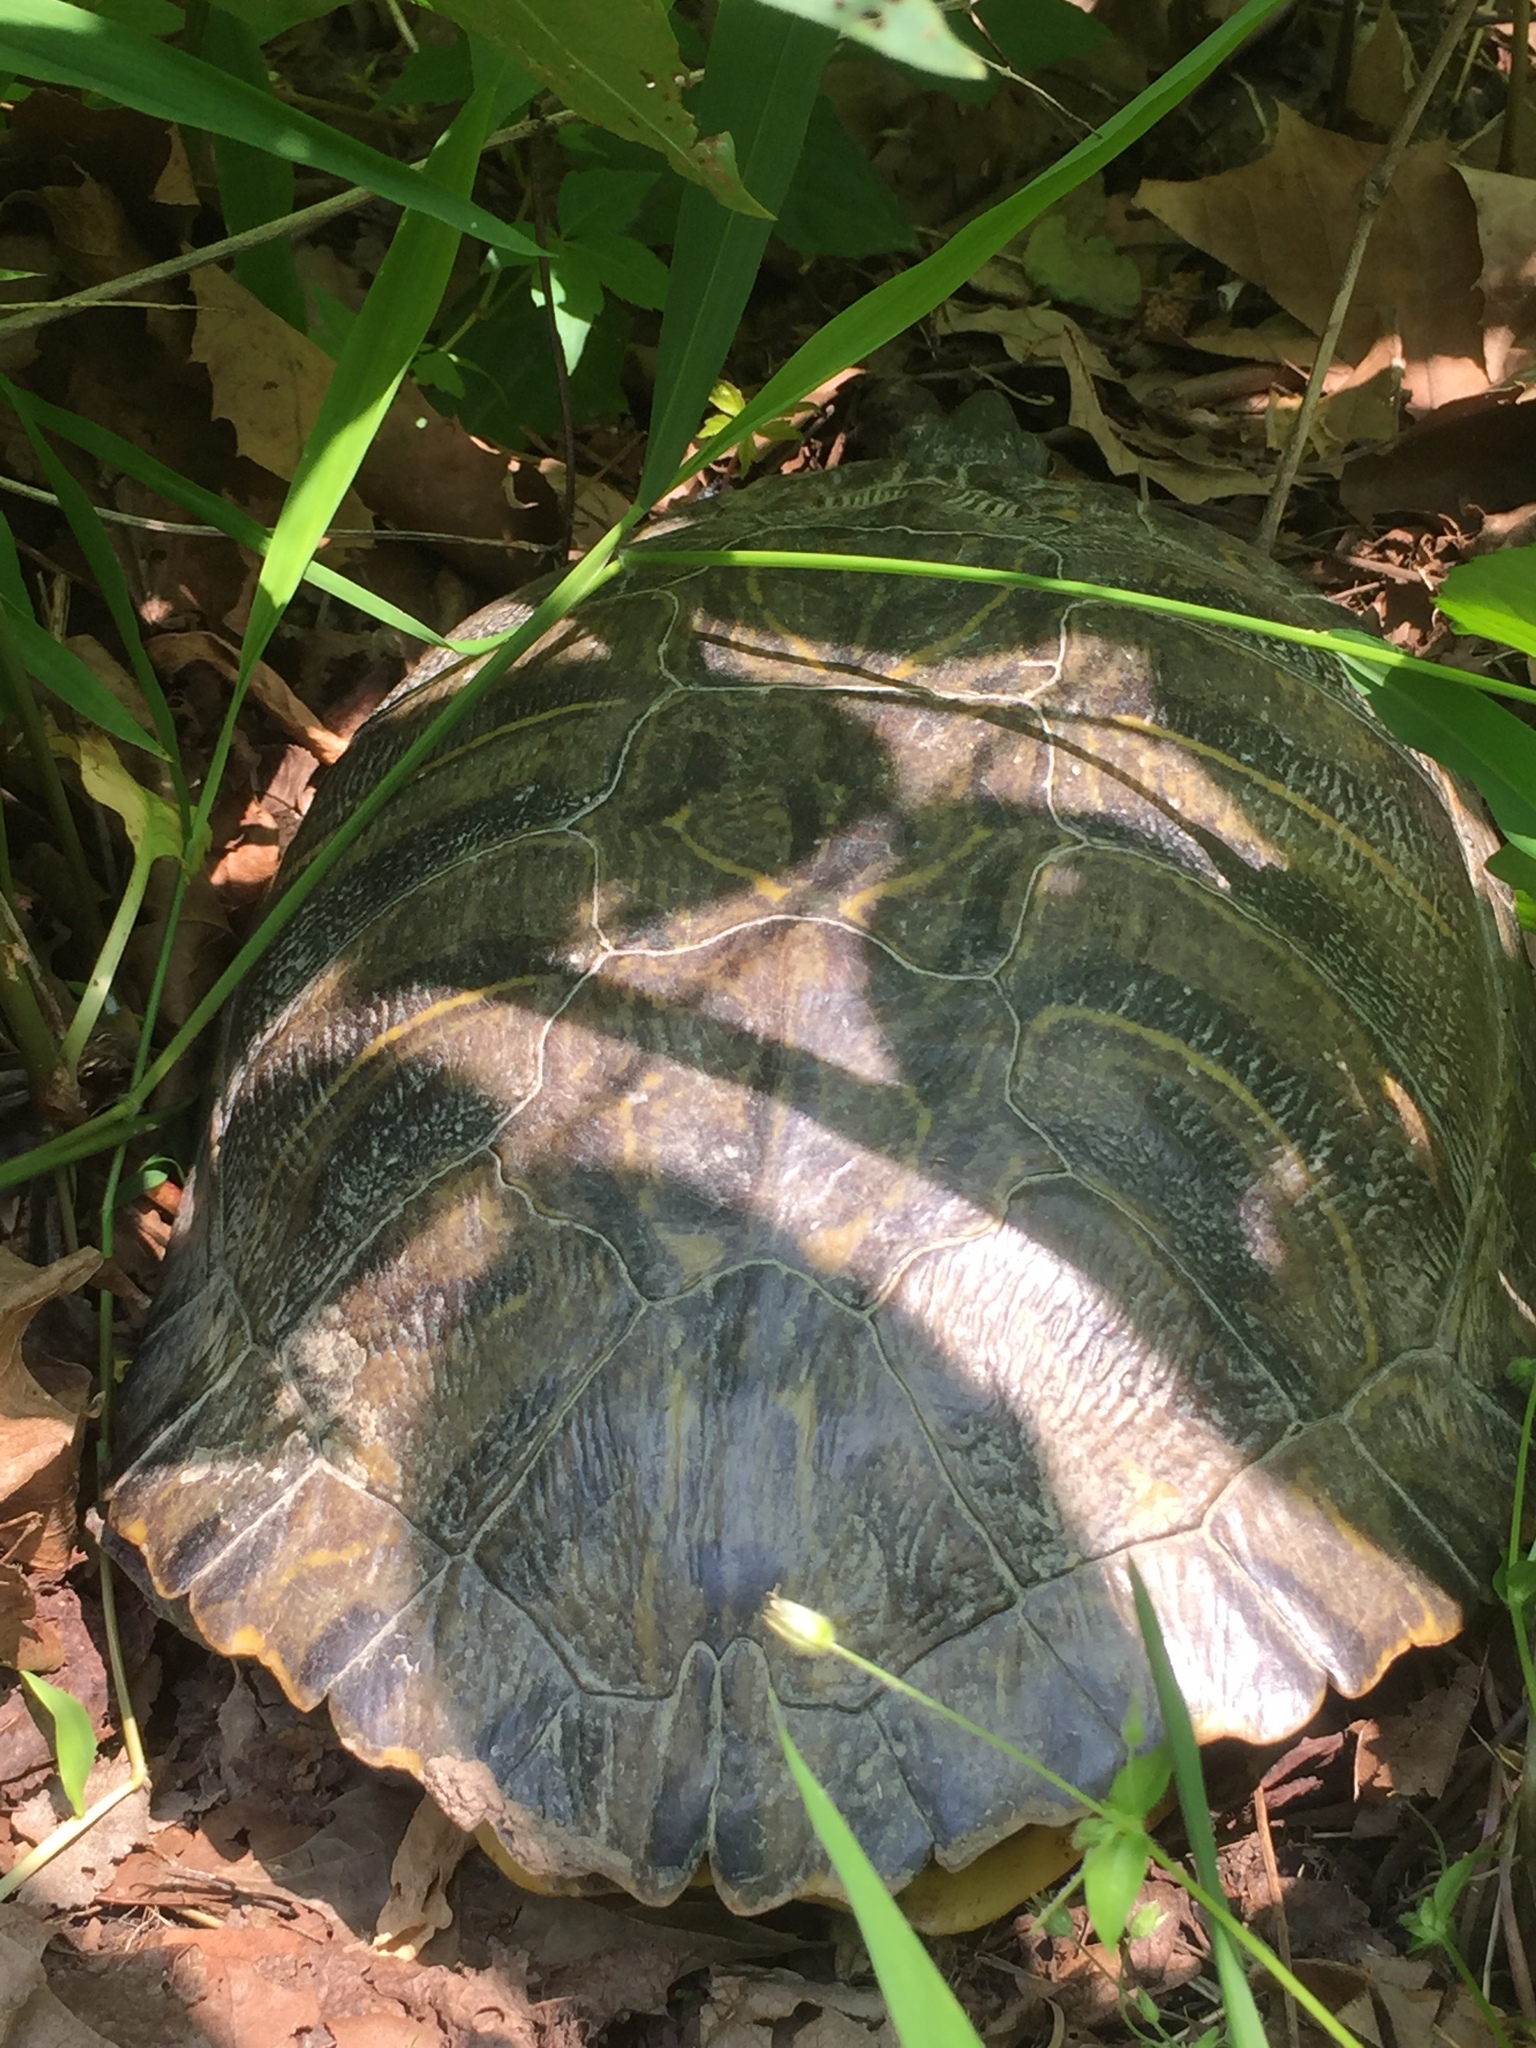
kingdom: Animalia
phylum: Chordata
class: Testudines
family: Emydidae
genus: Trachemys
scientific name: Trachemys scripta
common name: Slider
